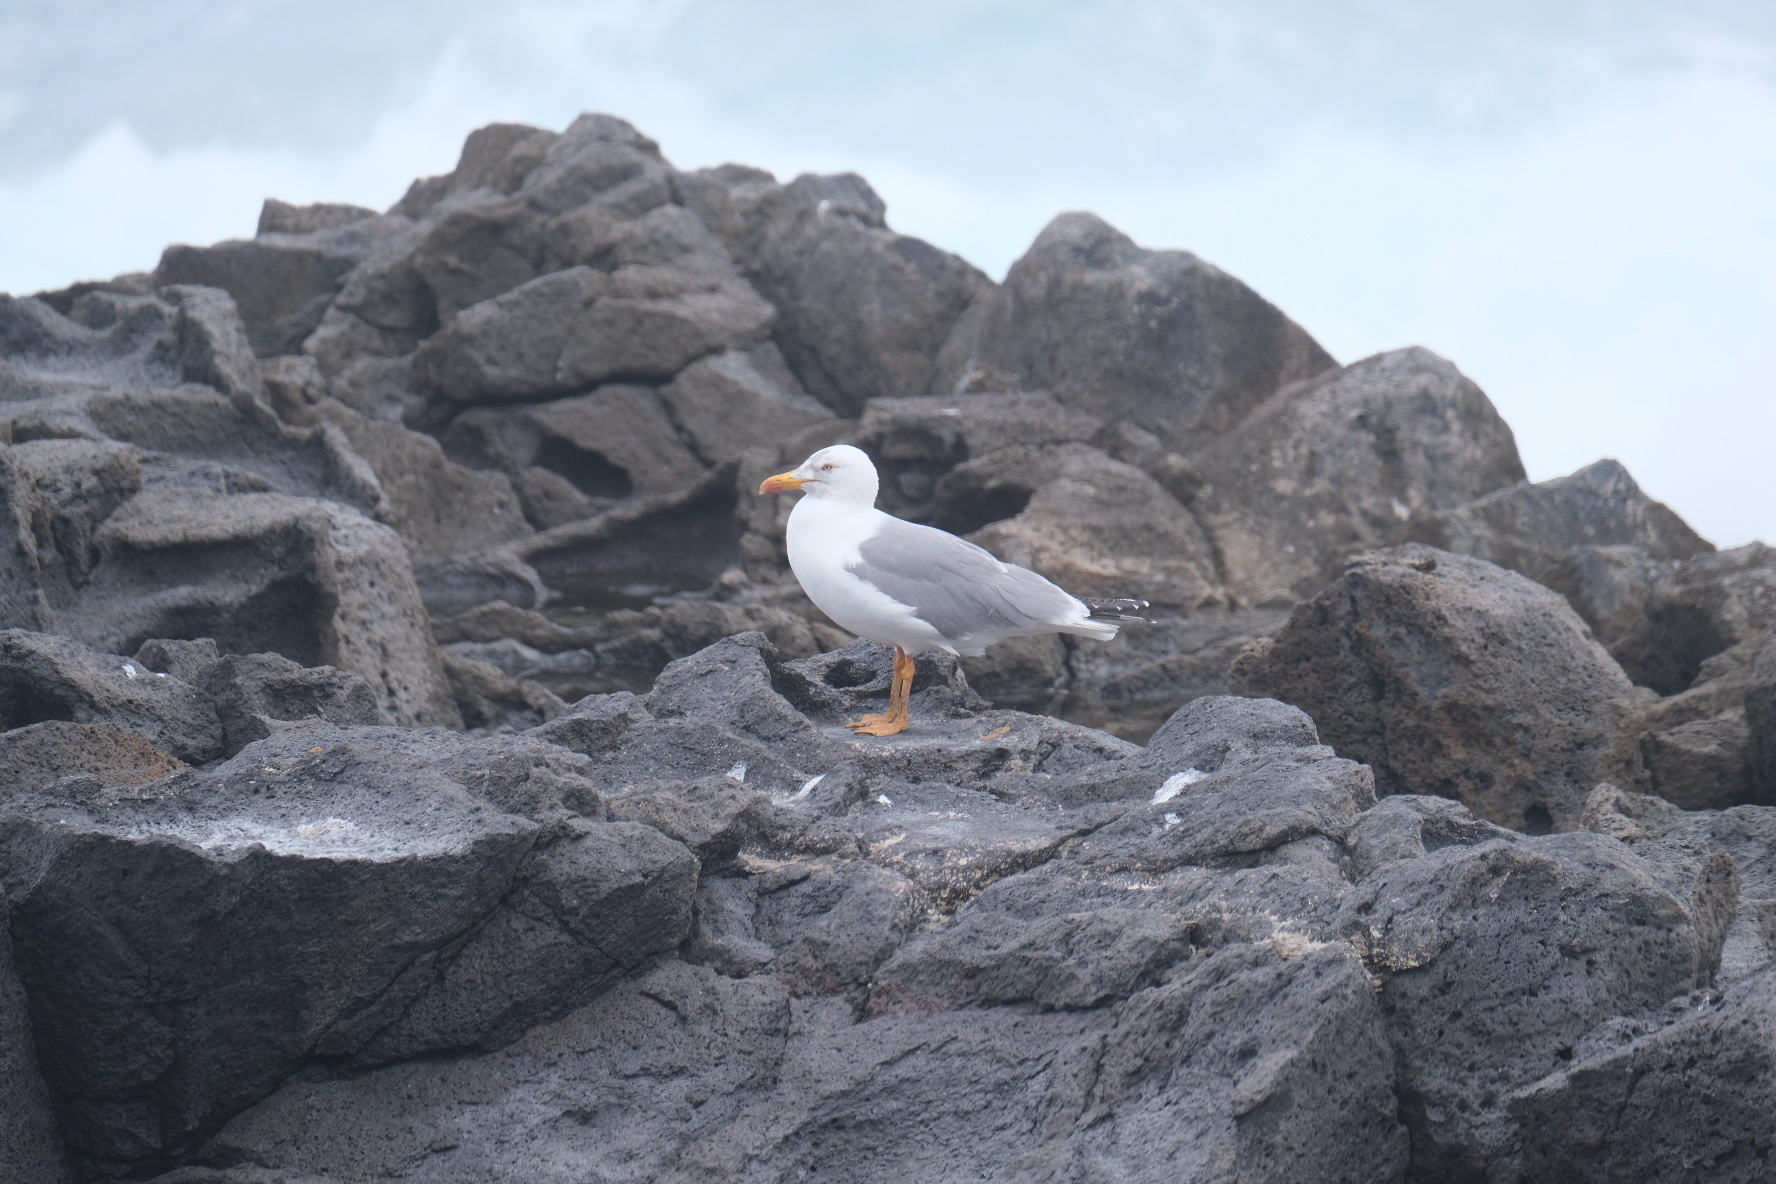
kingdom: Animalia
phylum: Chordata
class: Aves
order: Charadriiformes
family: Laridae
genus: Larus
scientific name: Larus michahellis
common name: Yellow-legged gull
